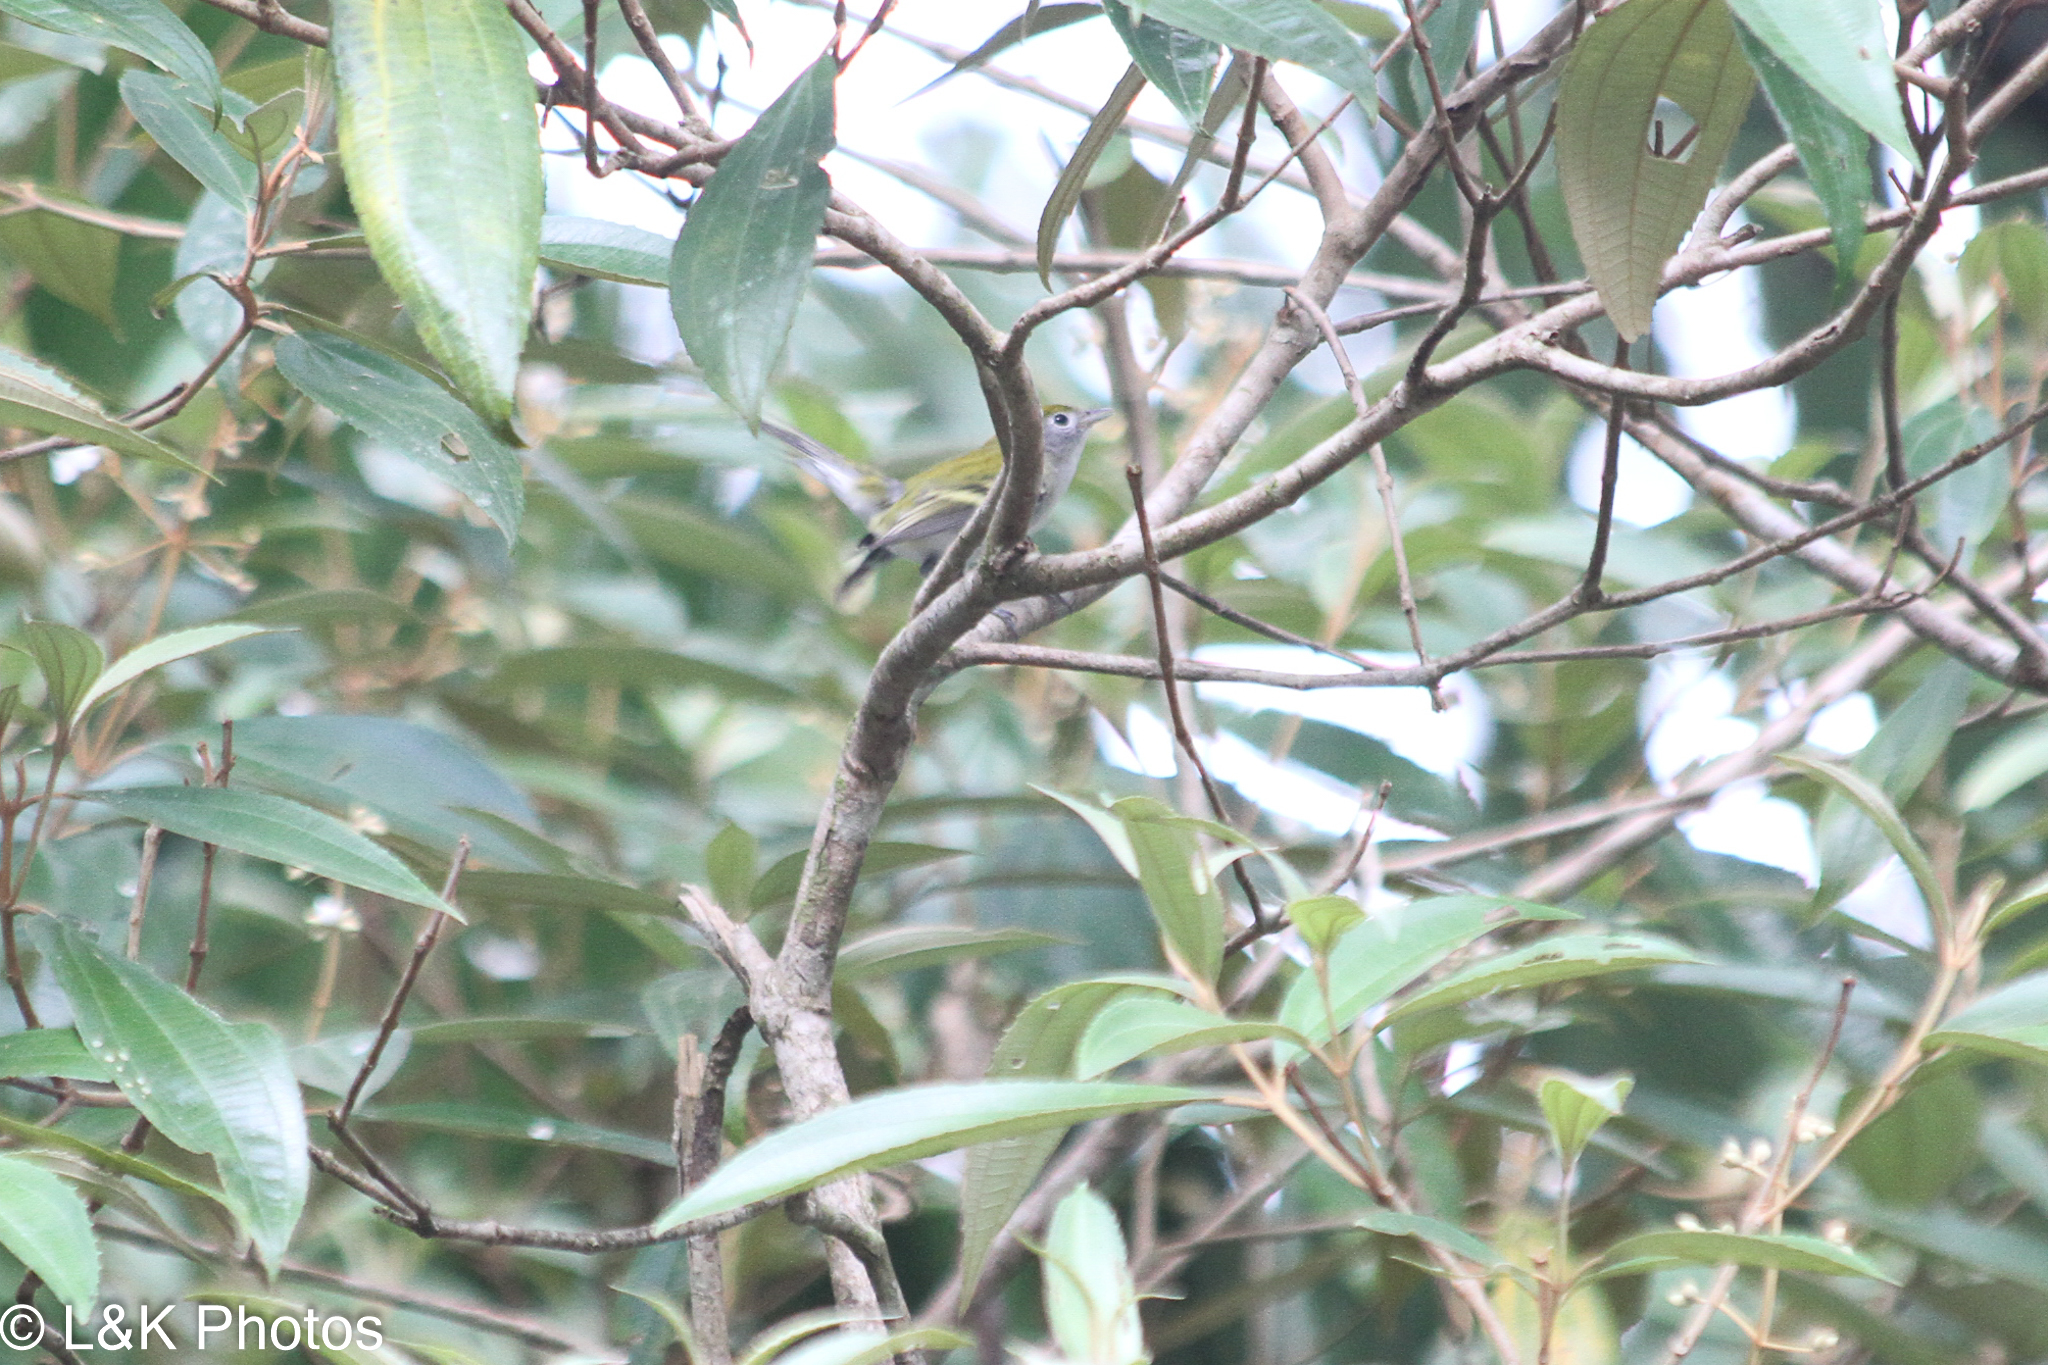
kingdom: Animalia
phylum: Chordata
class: Aves
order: Passeriformes
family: Parulidae
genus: Setophaga
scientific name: Setophaga pensylvanica
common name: Chestnut-sided warbler
